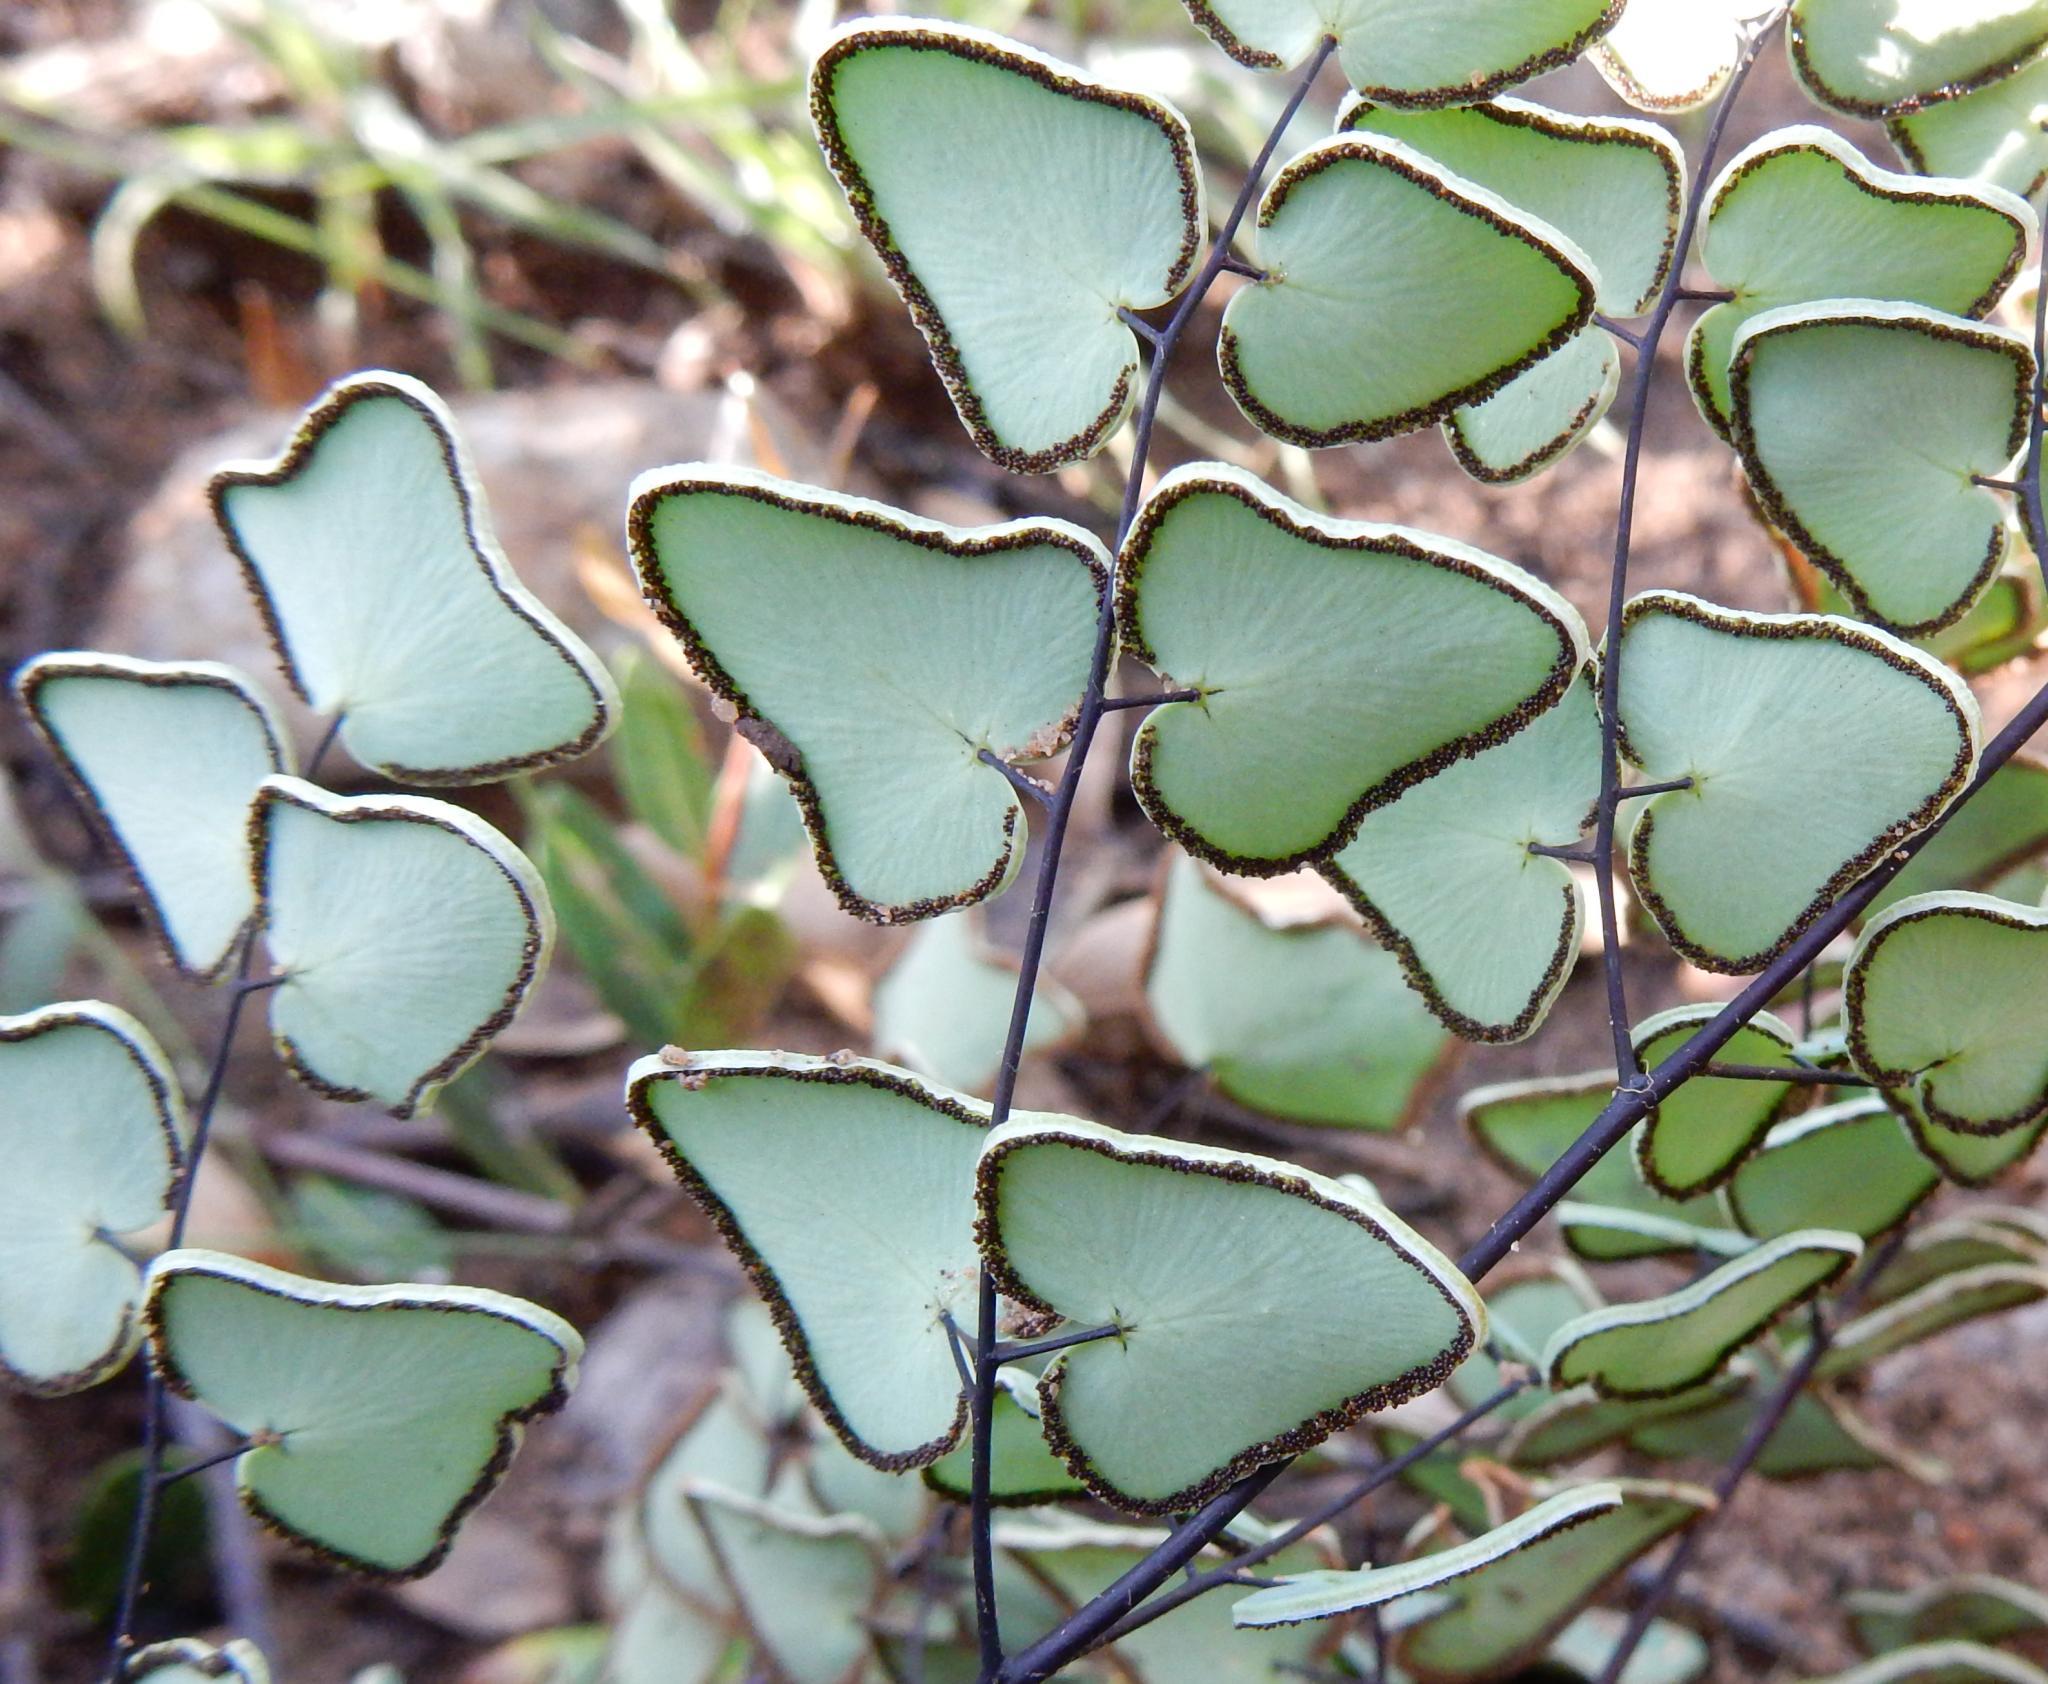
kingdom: Plantae
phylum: Tracheophyta
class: Polypodiopsida
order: Polypodiales
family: Pteridaceae
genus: Pellaea
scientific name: Pellaea calomelanos
